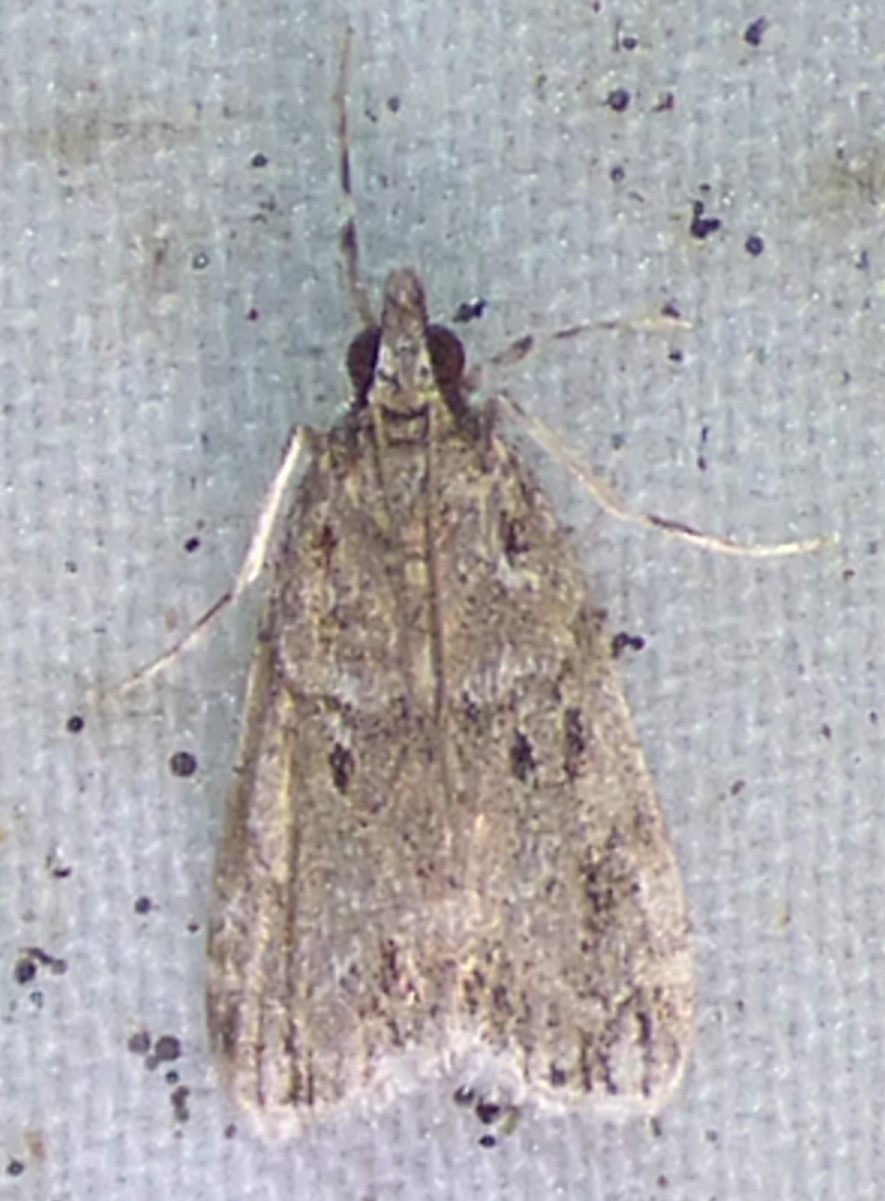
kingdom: Animalia
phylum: Arthropoda
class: Insecta
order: Lepidoptera
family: Crambidae
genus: Eudonia
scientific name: Eudonia heterosalis
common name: Mcdunnough's eudonia
